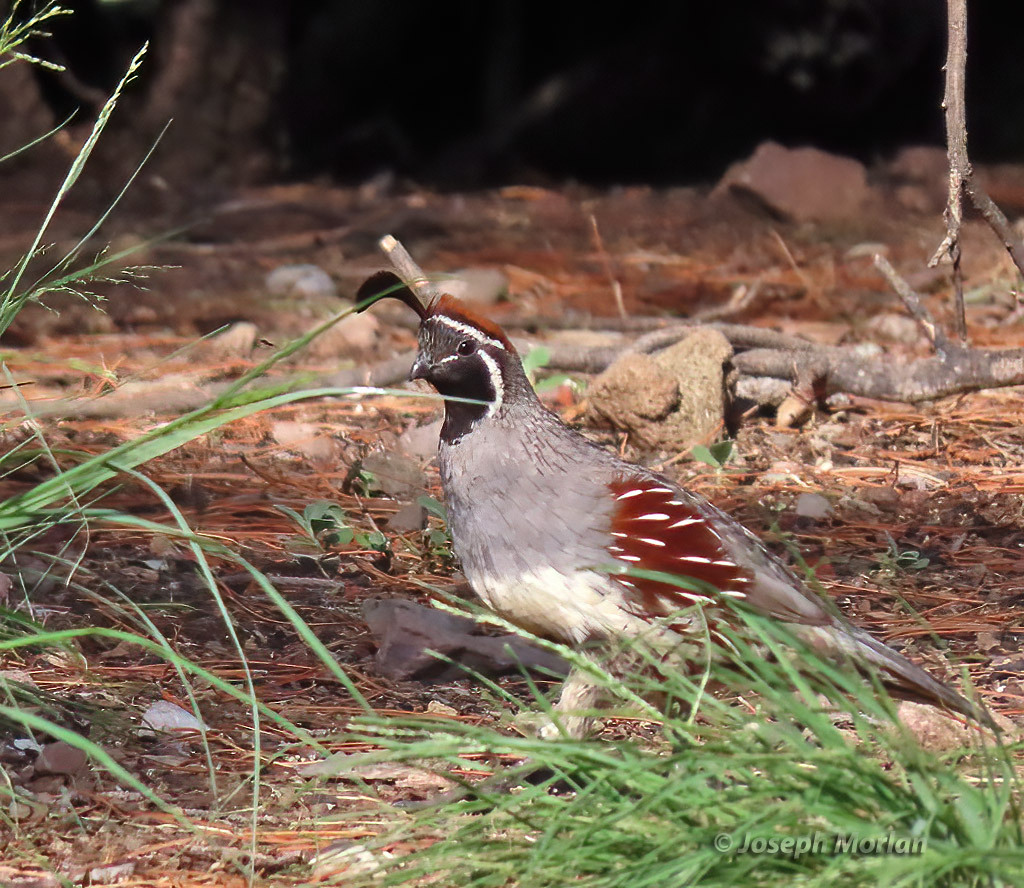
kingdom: Animalia
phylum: Chordata
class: Aves
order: Galliformes
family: Odontophoridae
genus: Callipepla
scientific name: Callipepla gambelii
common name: Gambel's quail
